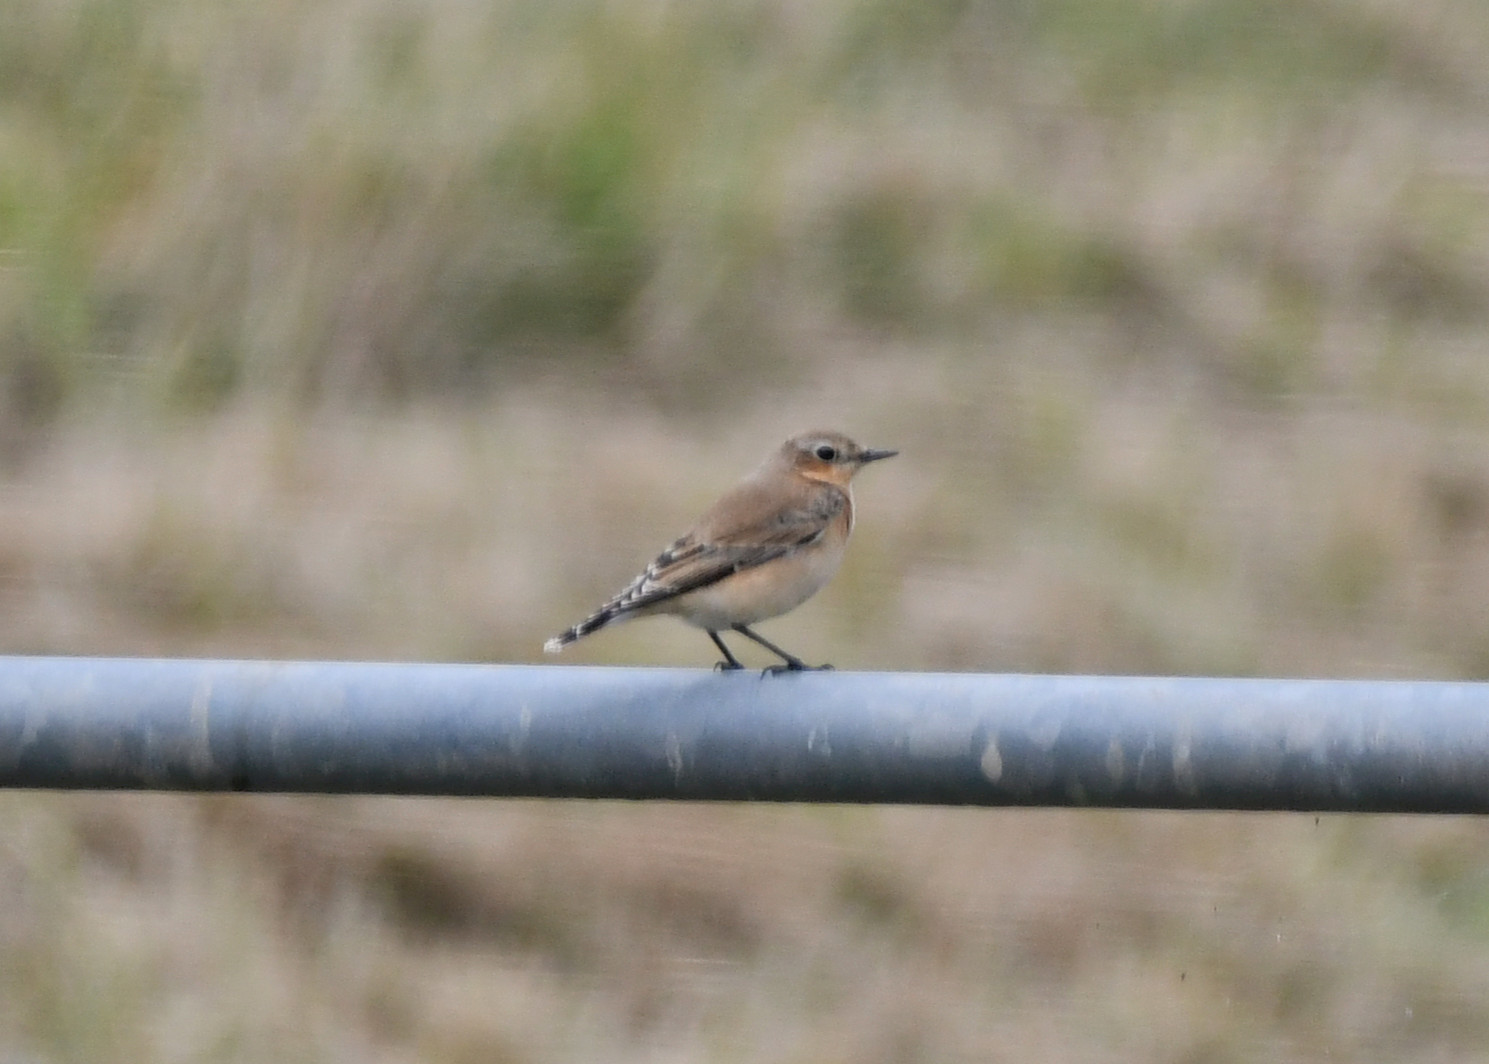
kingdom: Animalia
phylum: Chordata
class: Aves
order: Passeriformes
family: Muscicapidae
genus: Oenanthe
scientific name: Oenanthe oenanthe
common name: Northern wheatear
